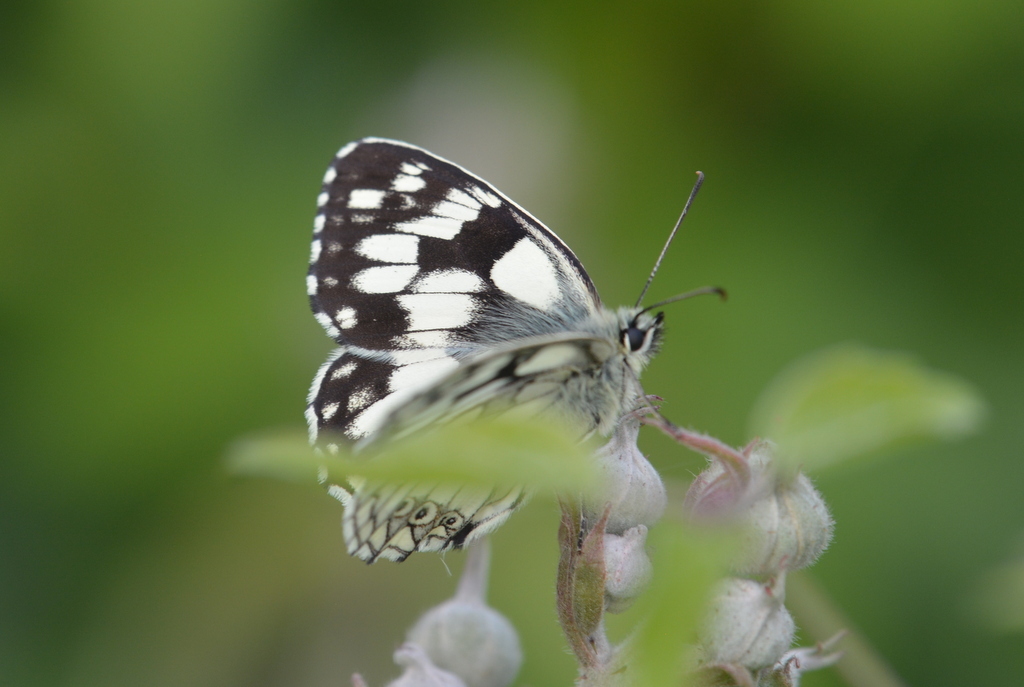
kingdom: Animalia
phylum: Arthropoda
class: Insecta
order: Lepidoptera
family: Nymphalidae
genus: Melanargia
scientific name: Melanargia galathea
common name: Marbled white
